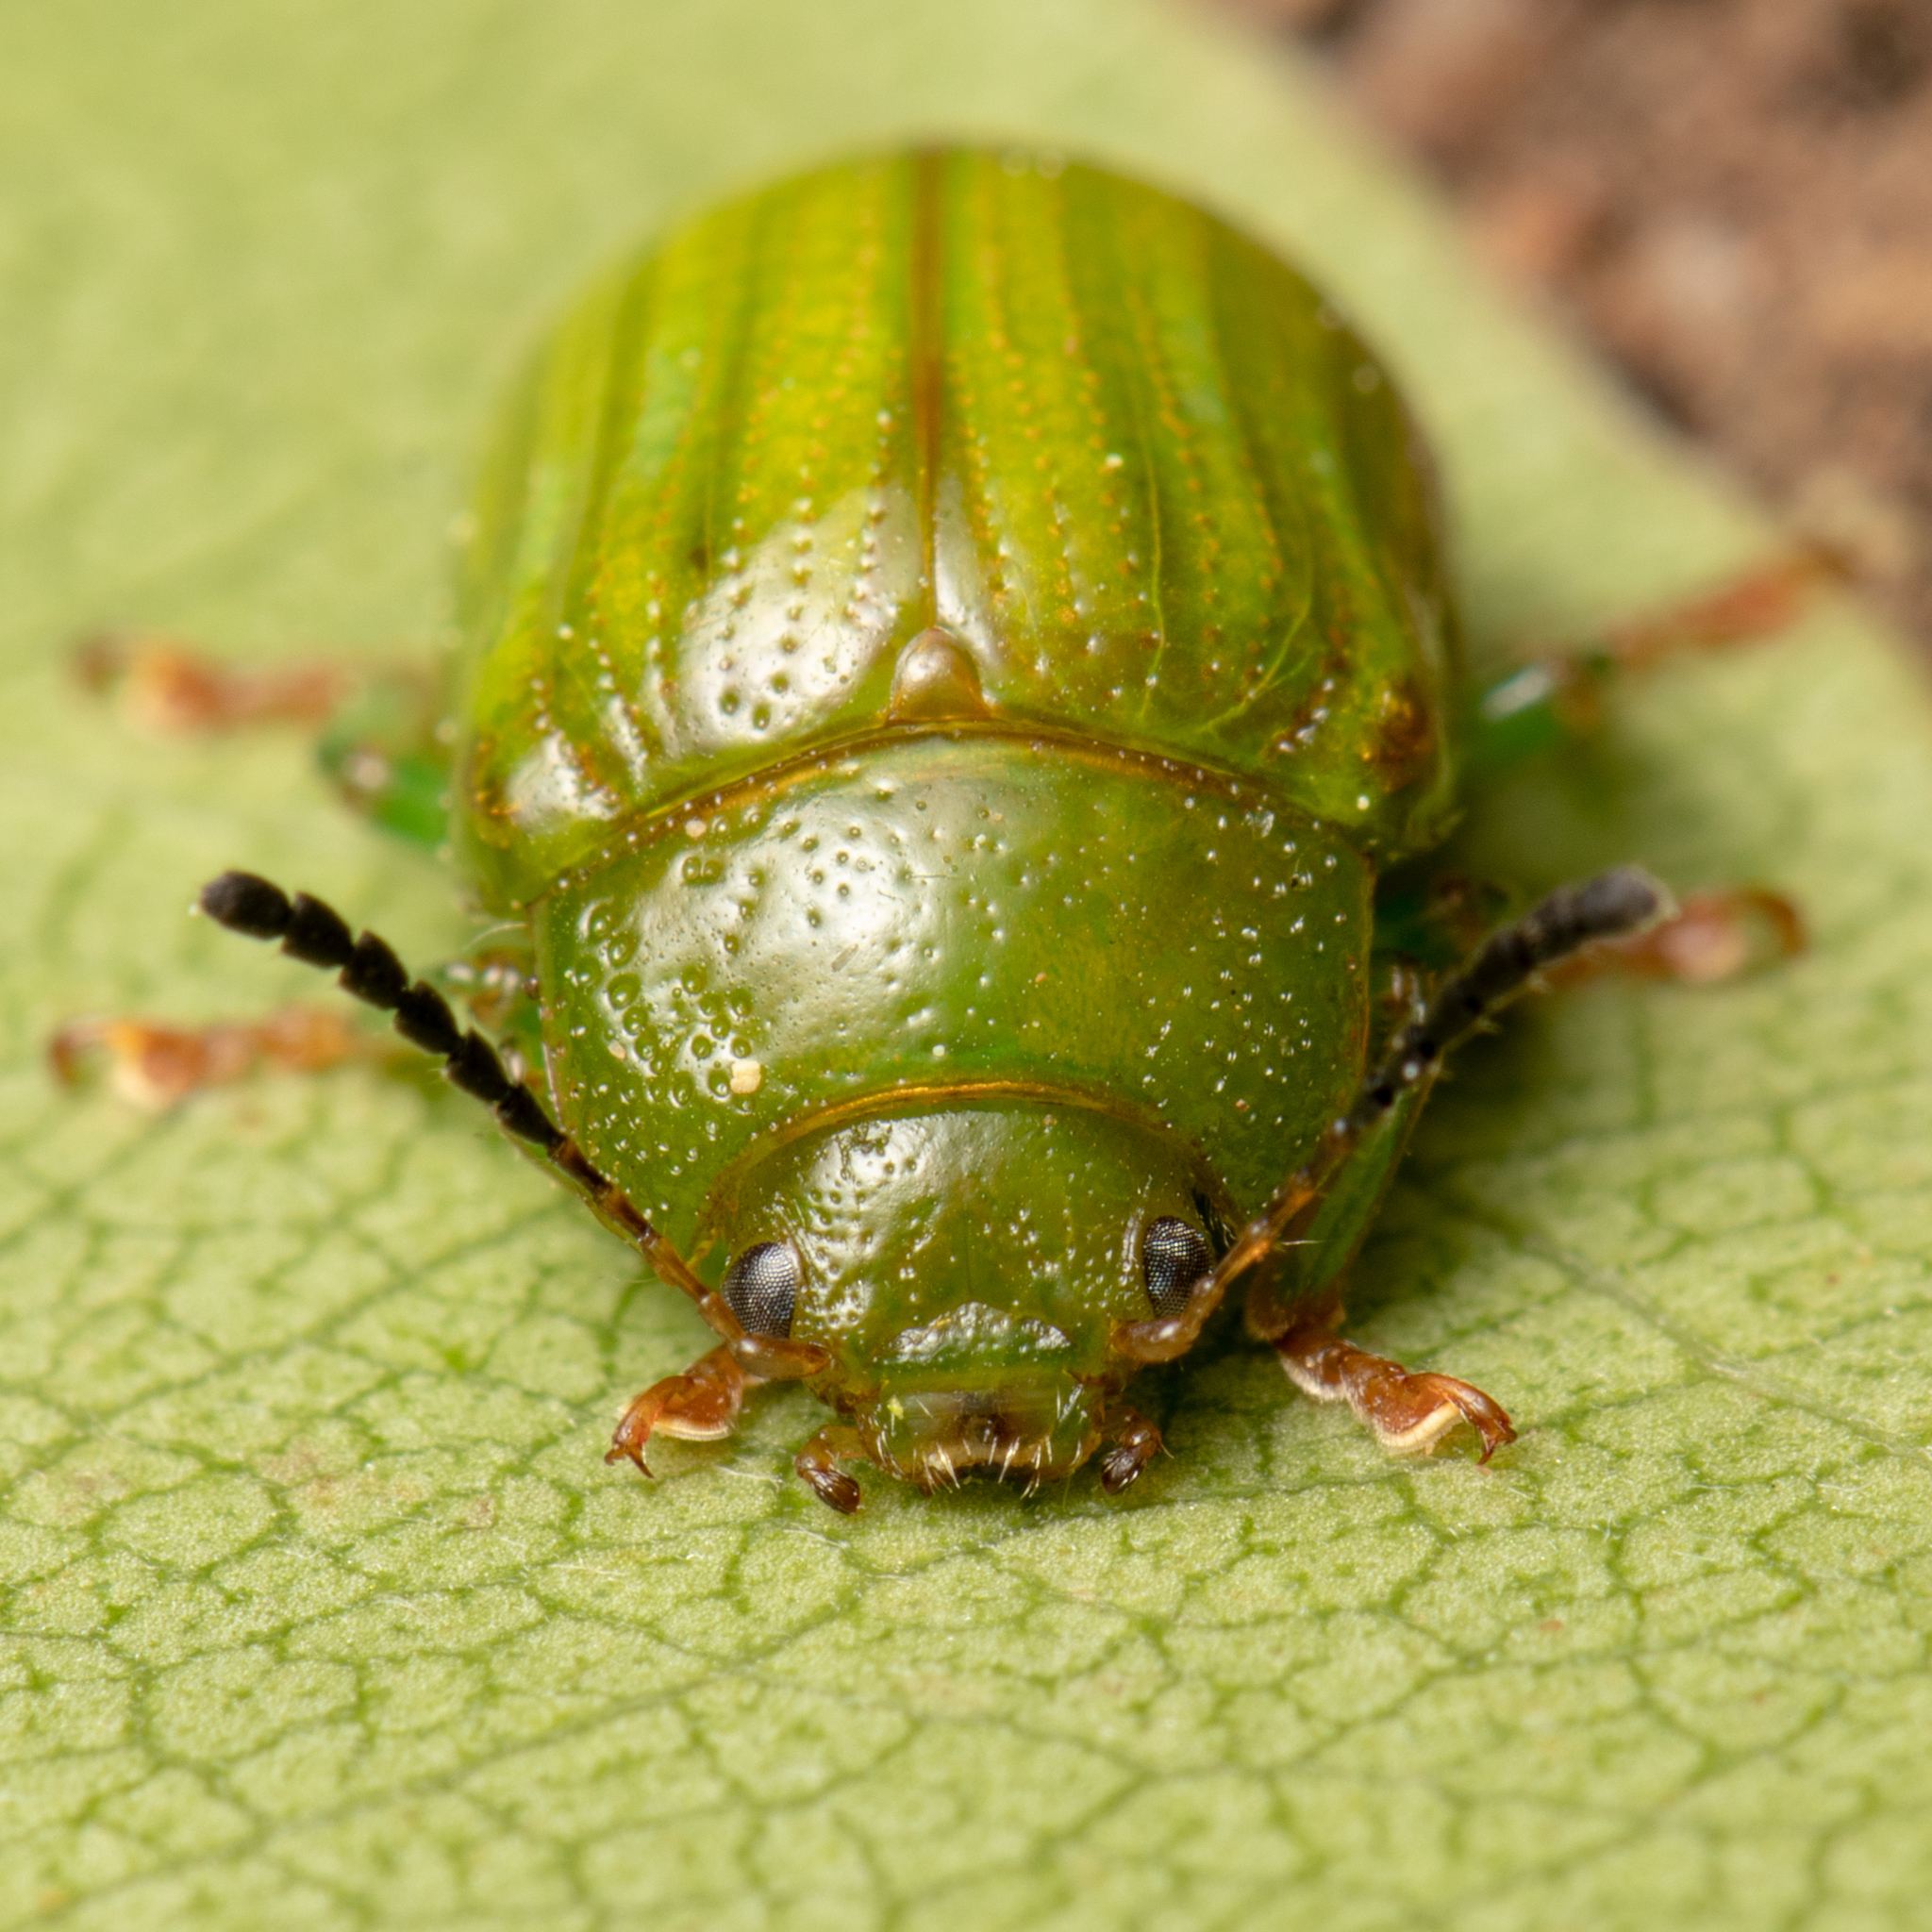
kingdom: Animalia
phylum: Arthropoda
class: Insecta
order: Coleoptera
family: Chrysomelidae
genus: Calomela
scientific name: Calomela
